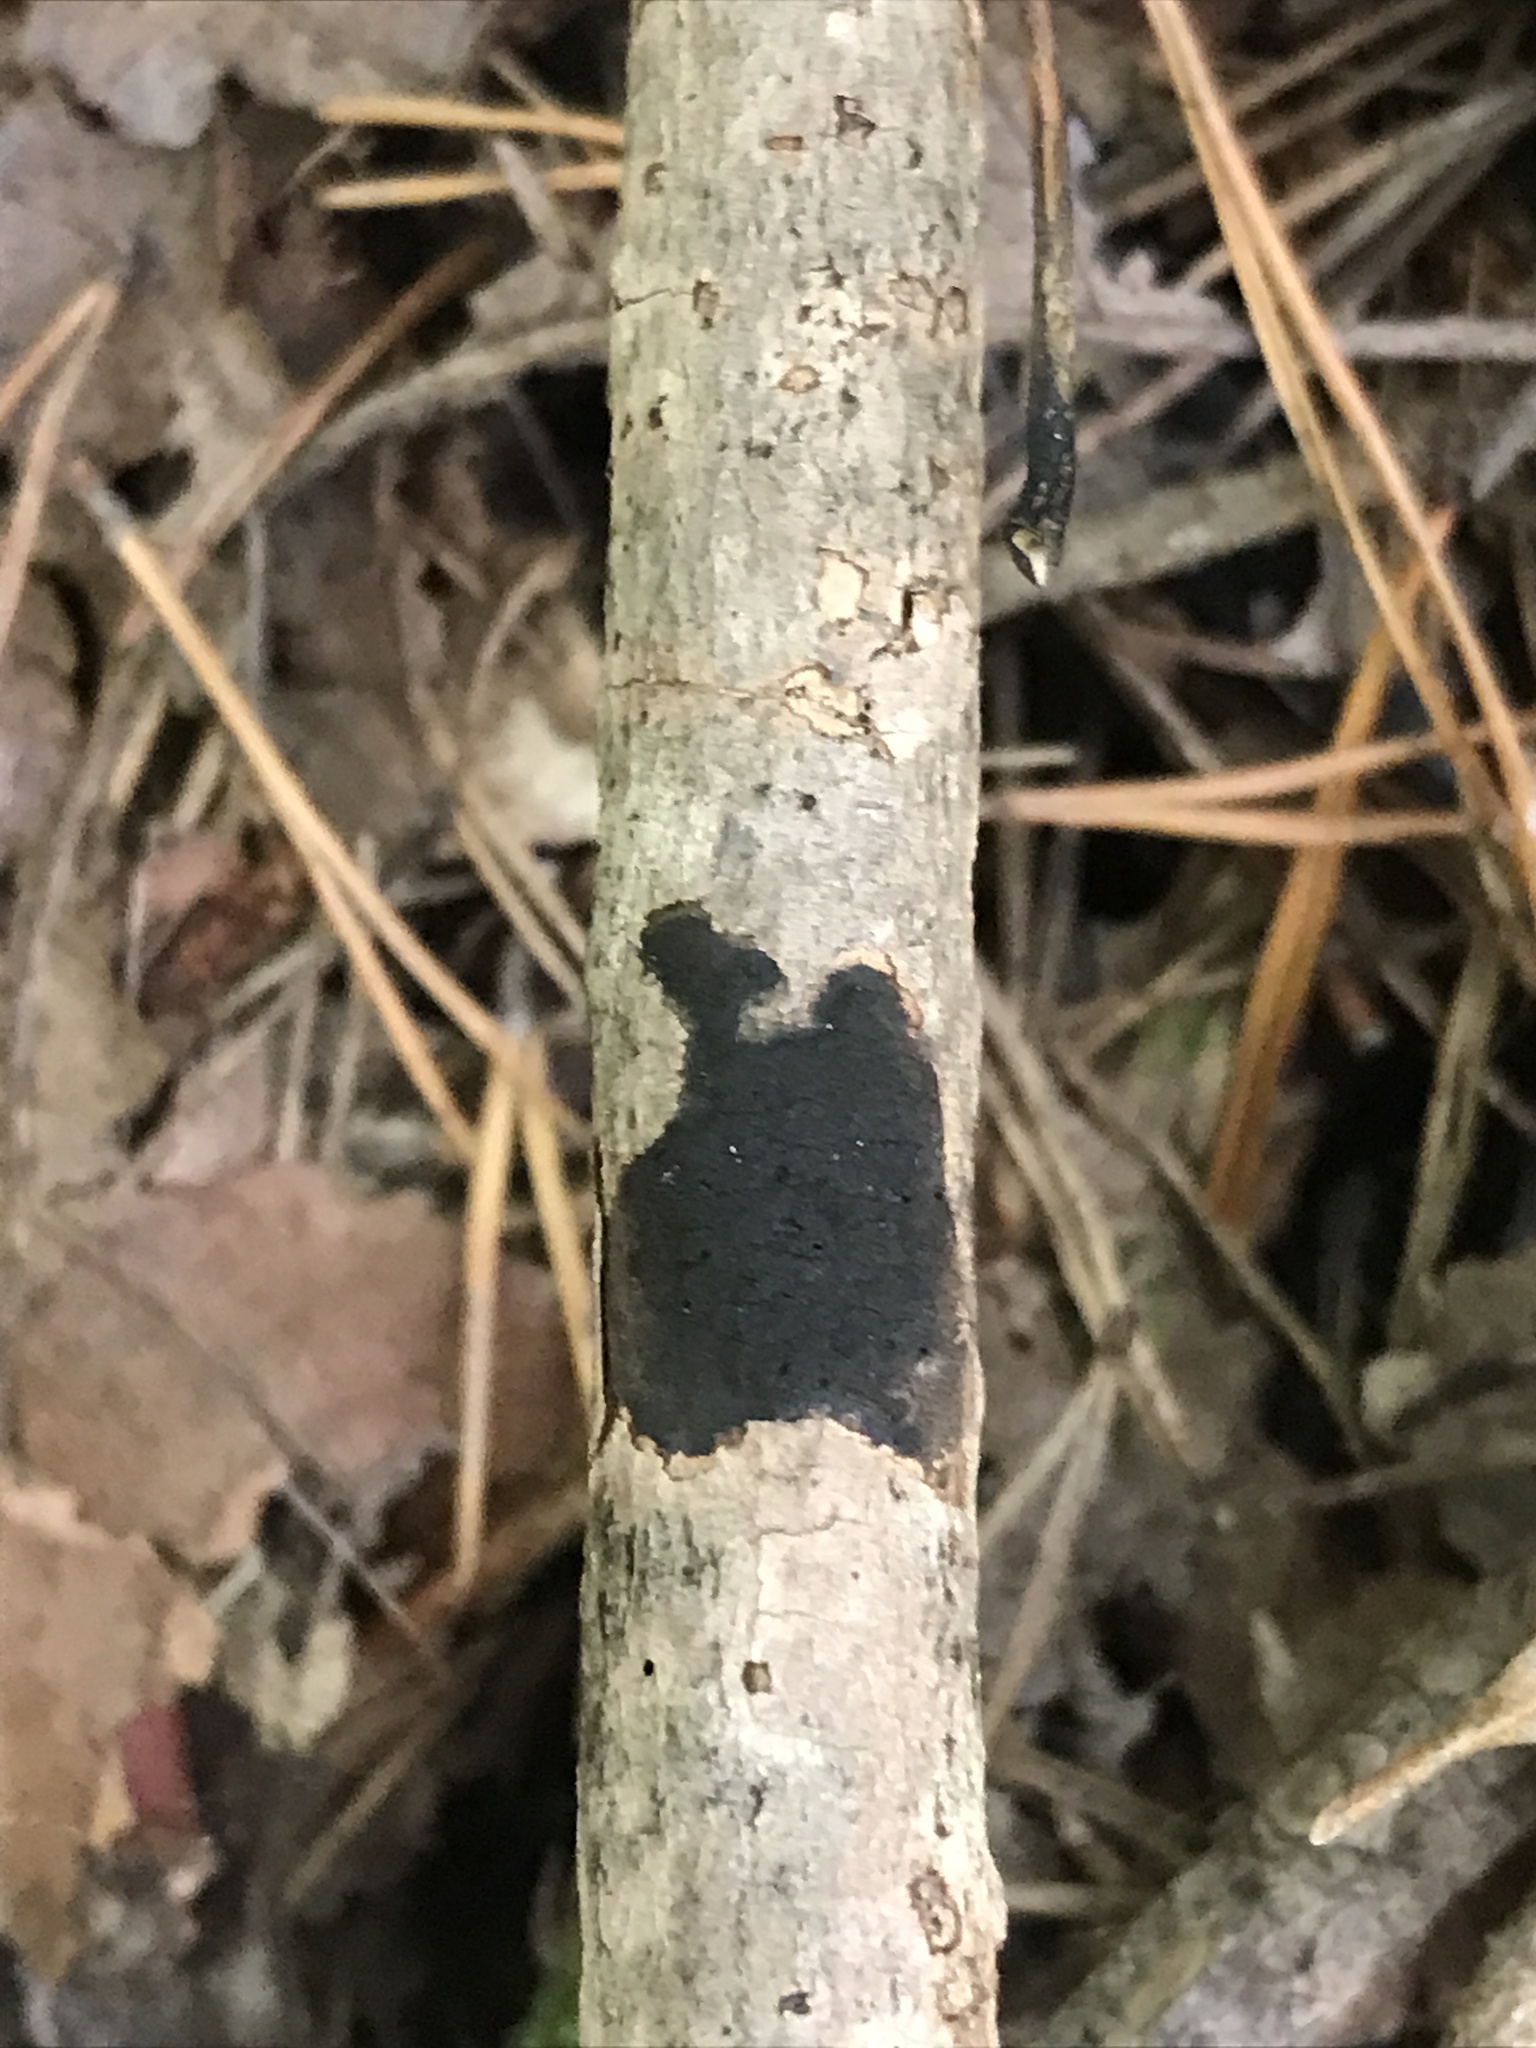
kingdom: Fungi
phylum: Ascomycota
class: Sordariomycetes
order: Xylariales
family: Diatrypaceae
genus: Diatrype
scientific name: Diatrype stigma
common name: Common tarcrust
